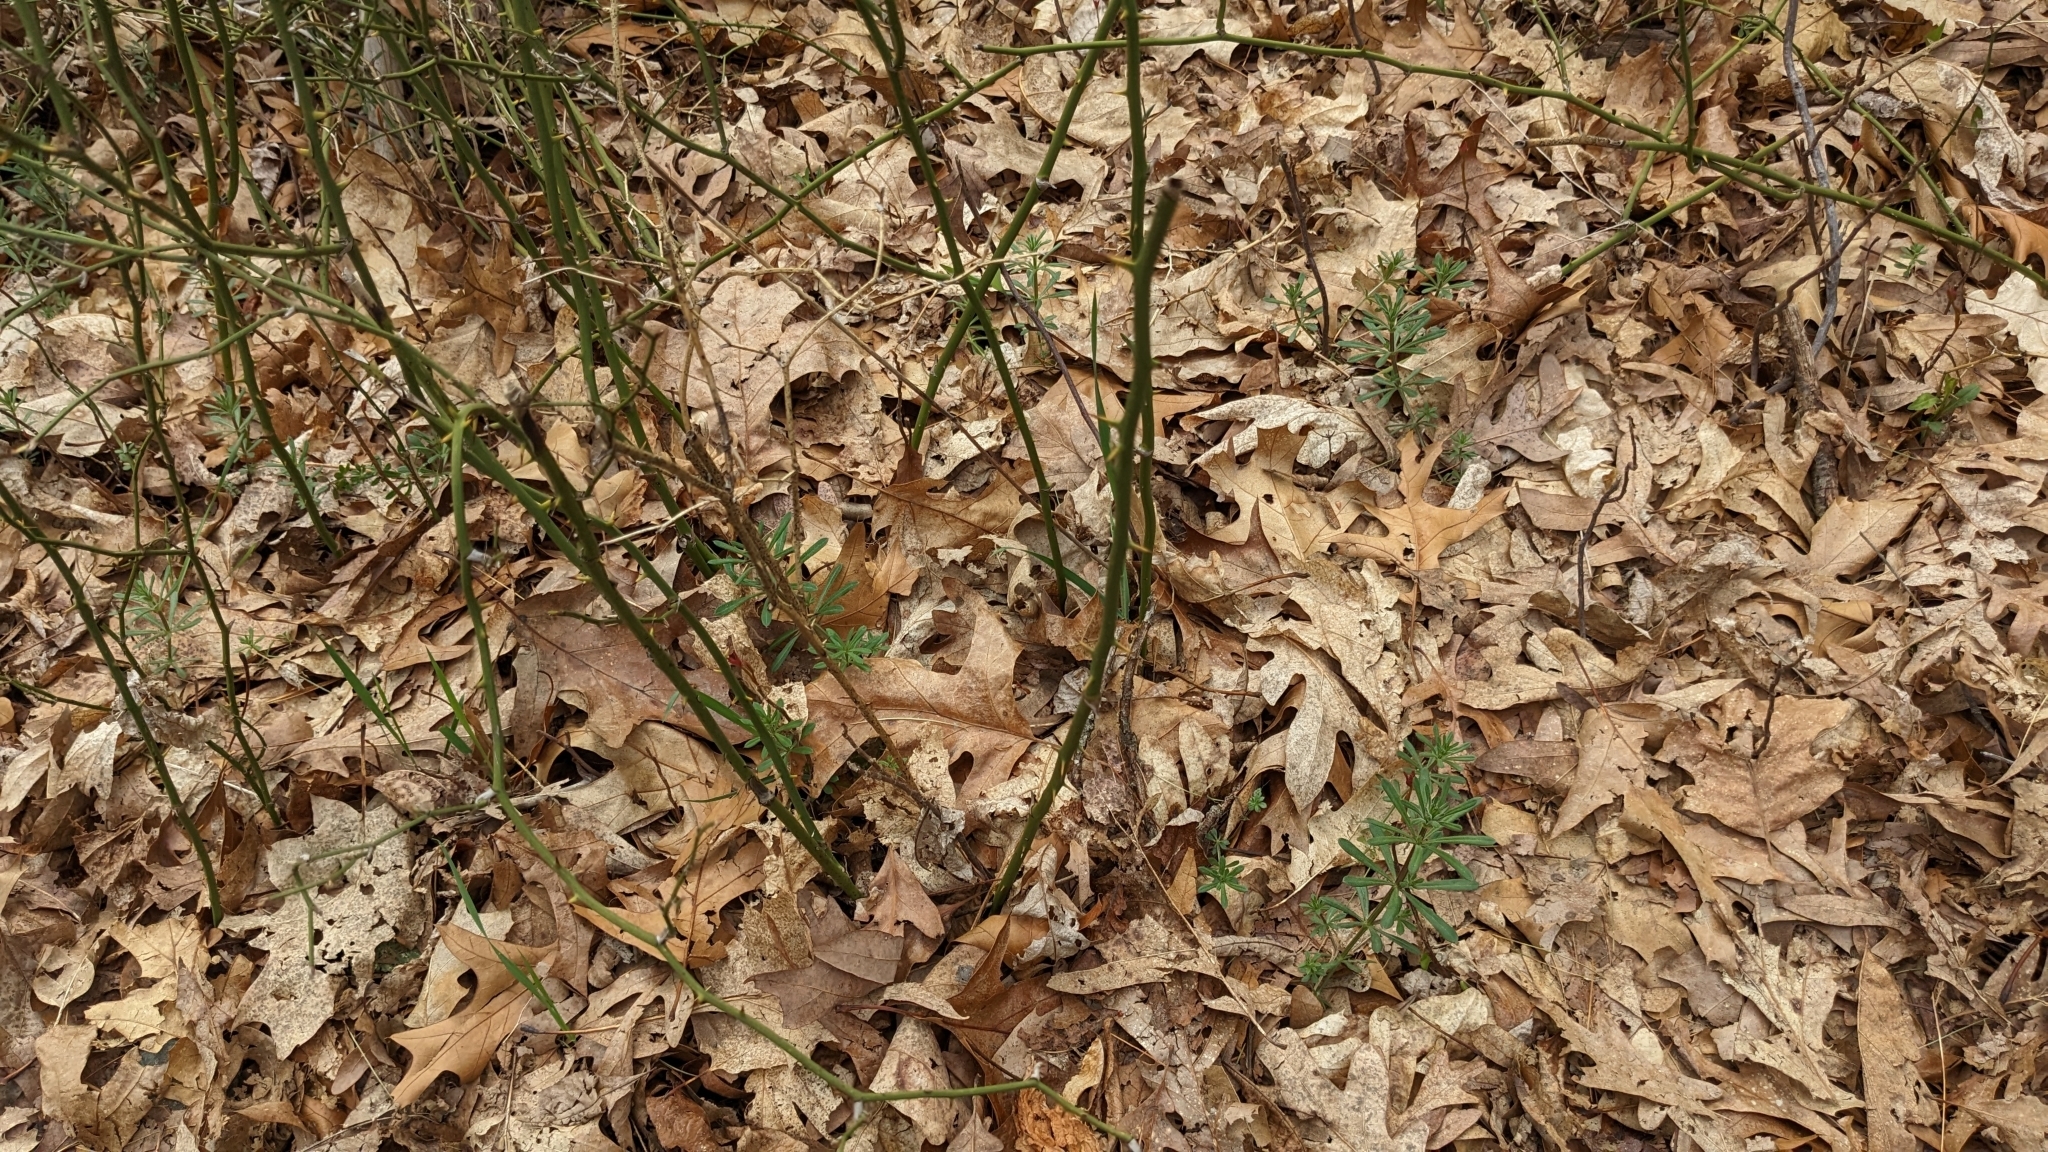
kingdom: Plantae
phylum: Tracheophyta
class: Magnoliopsida
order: Gentianales
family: Rubiaceae
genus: Galium
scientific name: Galium aparine
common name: Cleavers
